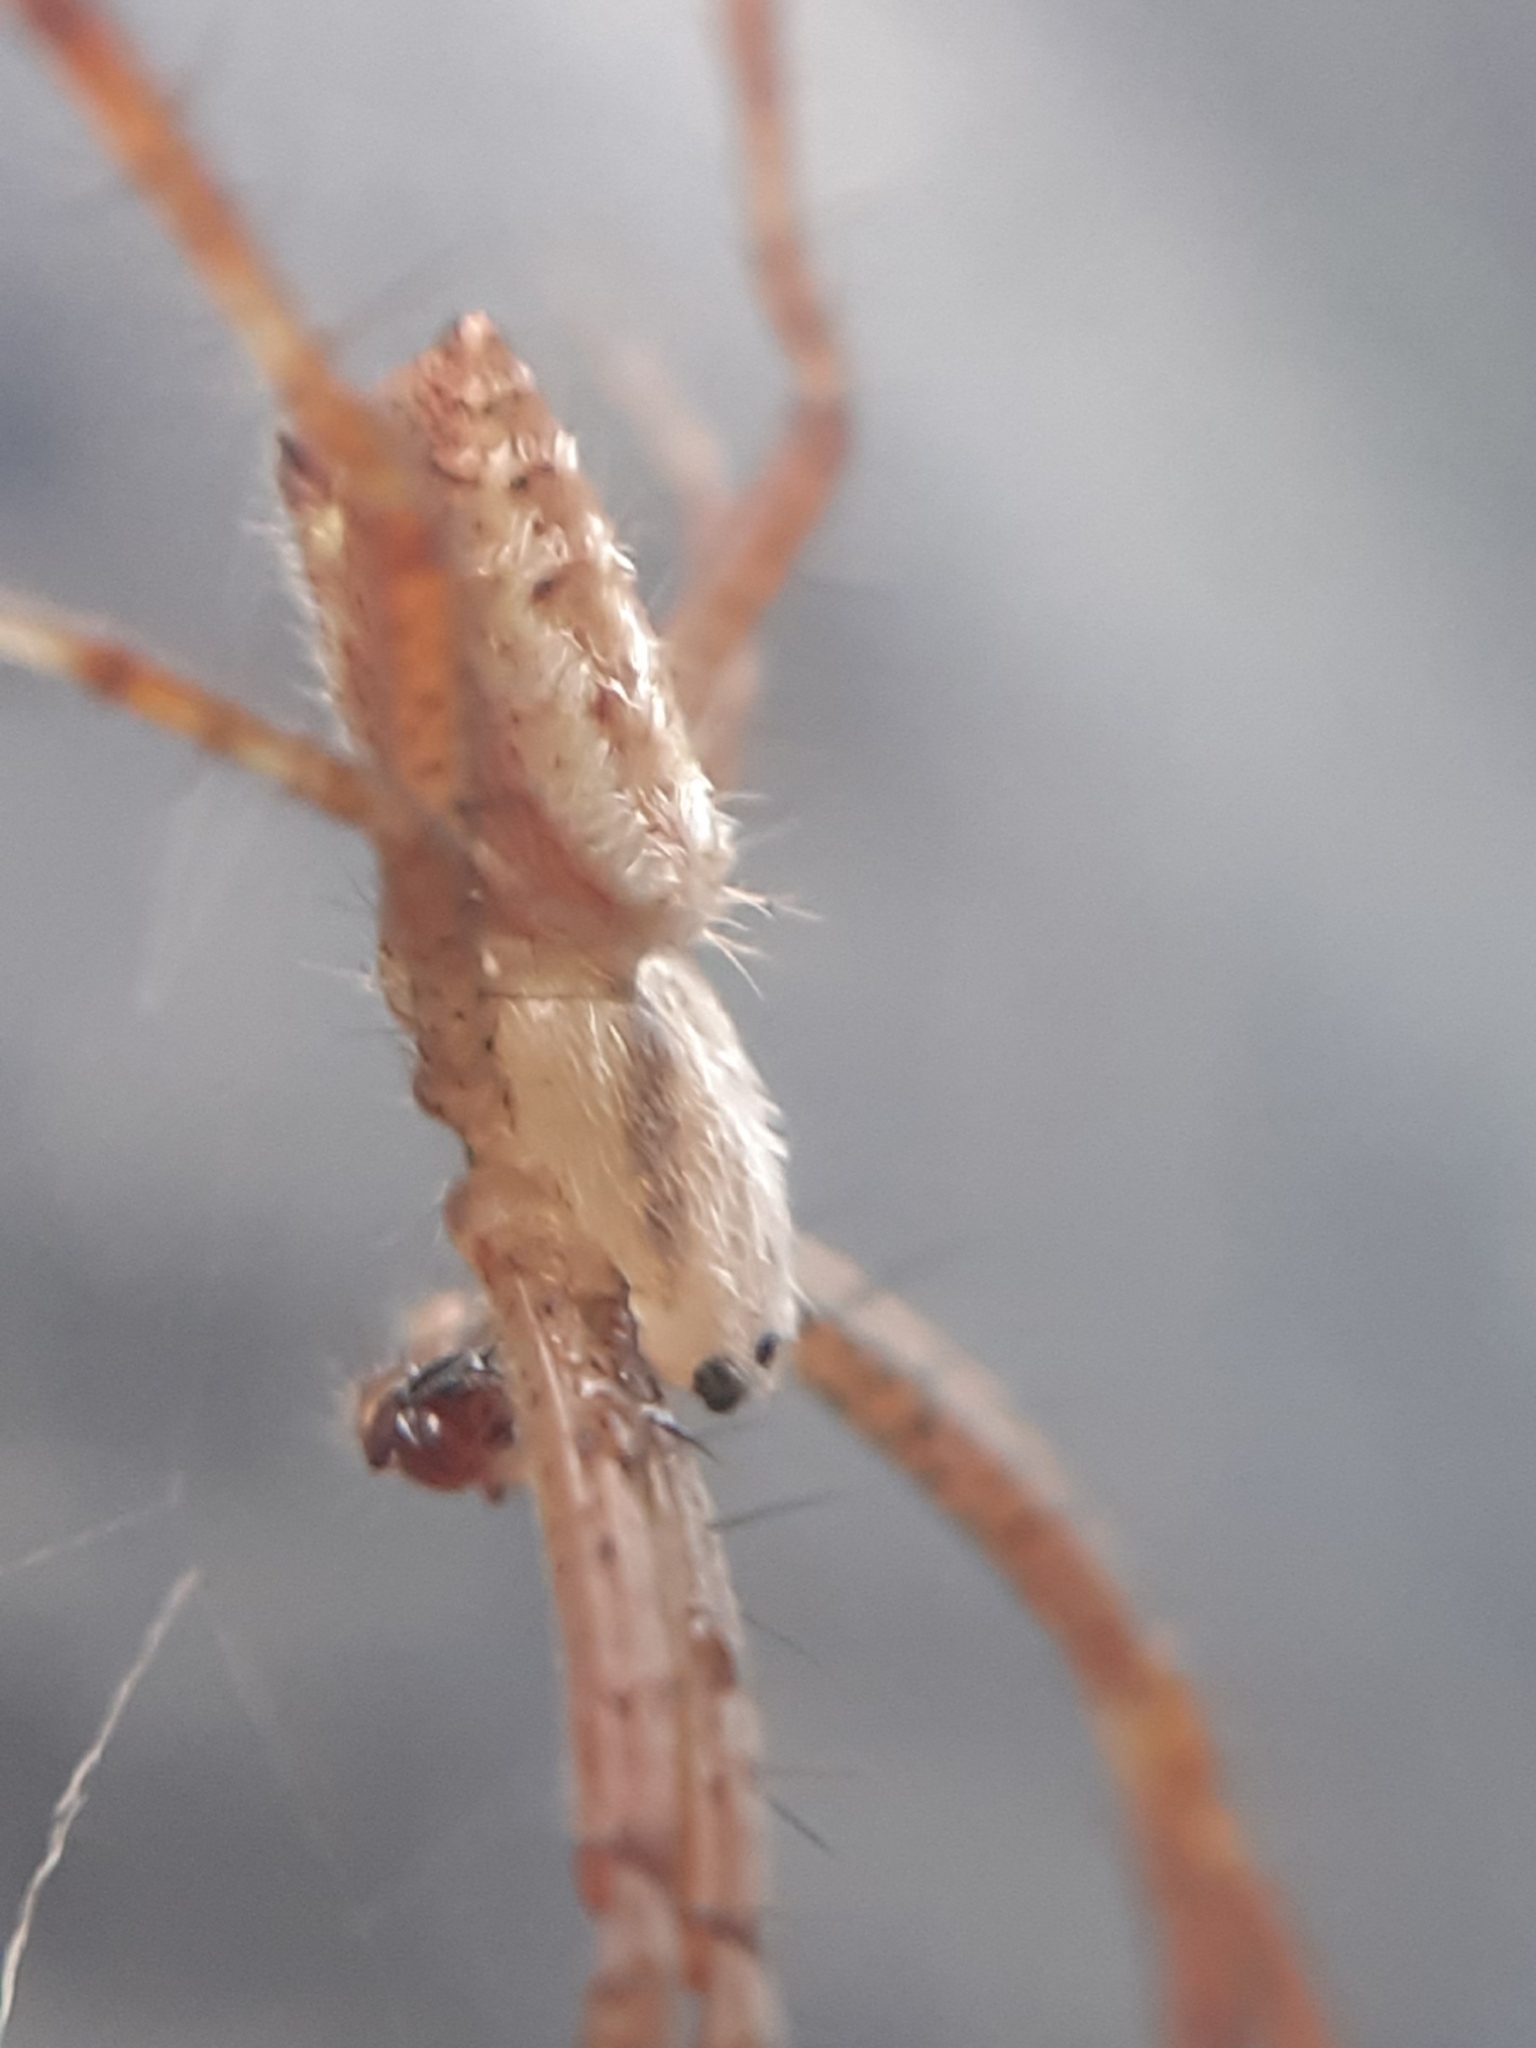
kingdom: Animalia
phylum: Arthropoda
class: Arachnida
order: Araneae
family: Araneidae
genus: Argiope
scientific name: Argiope bruennichi
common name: Wasp spider
